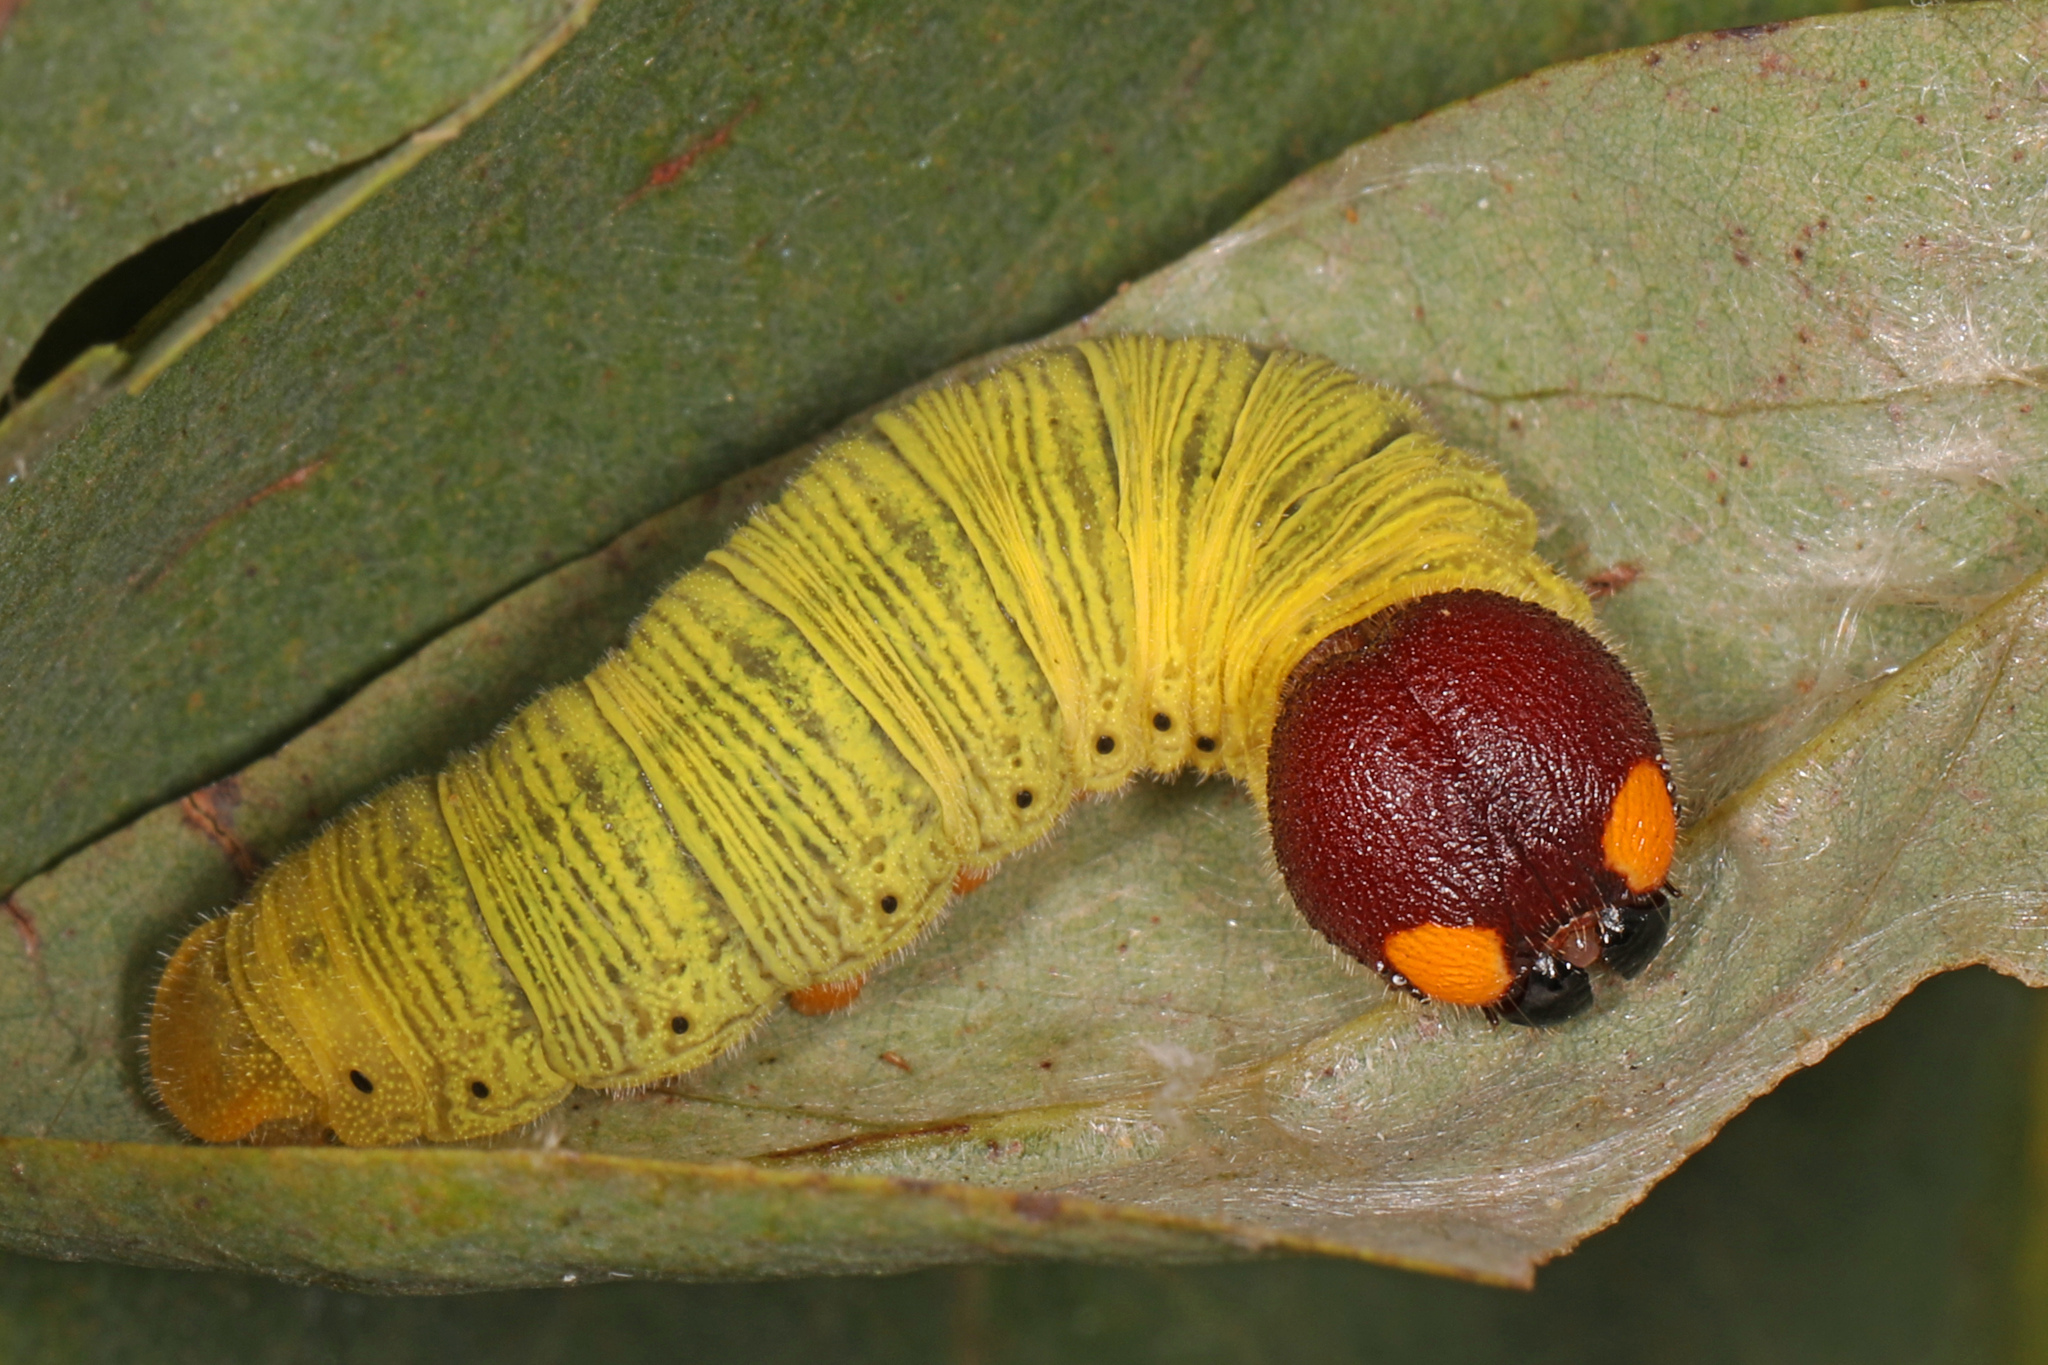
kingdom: Animalia
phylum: Arthropoda
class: Insecta
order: Lepidoptera
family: Hesperiidae
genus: Epargyreus
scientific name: Epargyreus clarus
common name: Silver-spotted skipper
